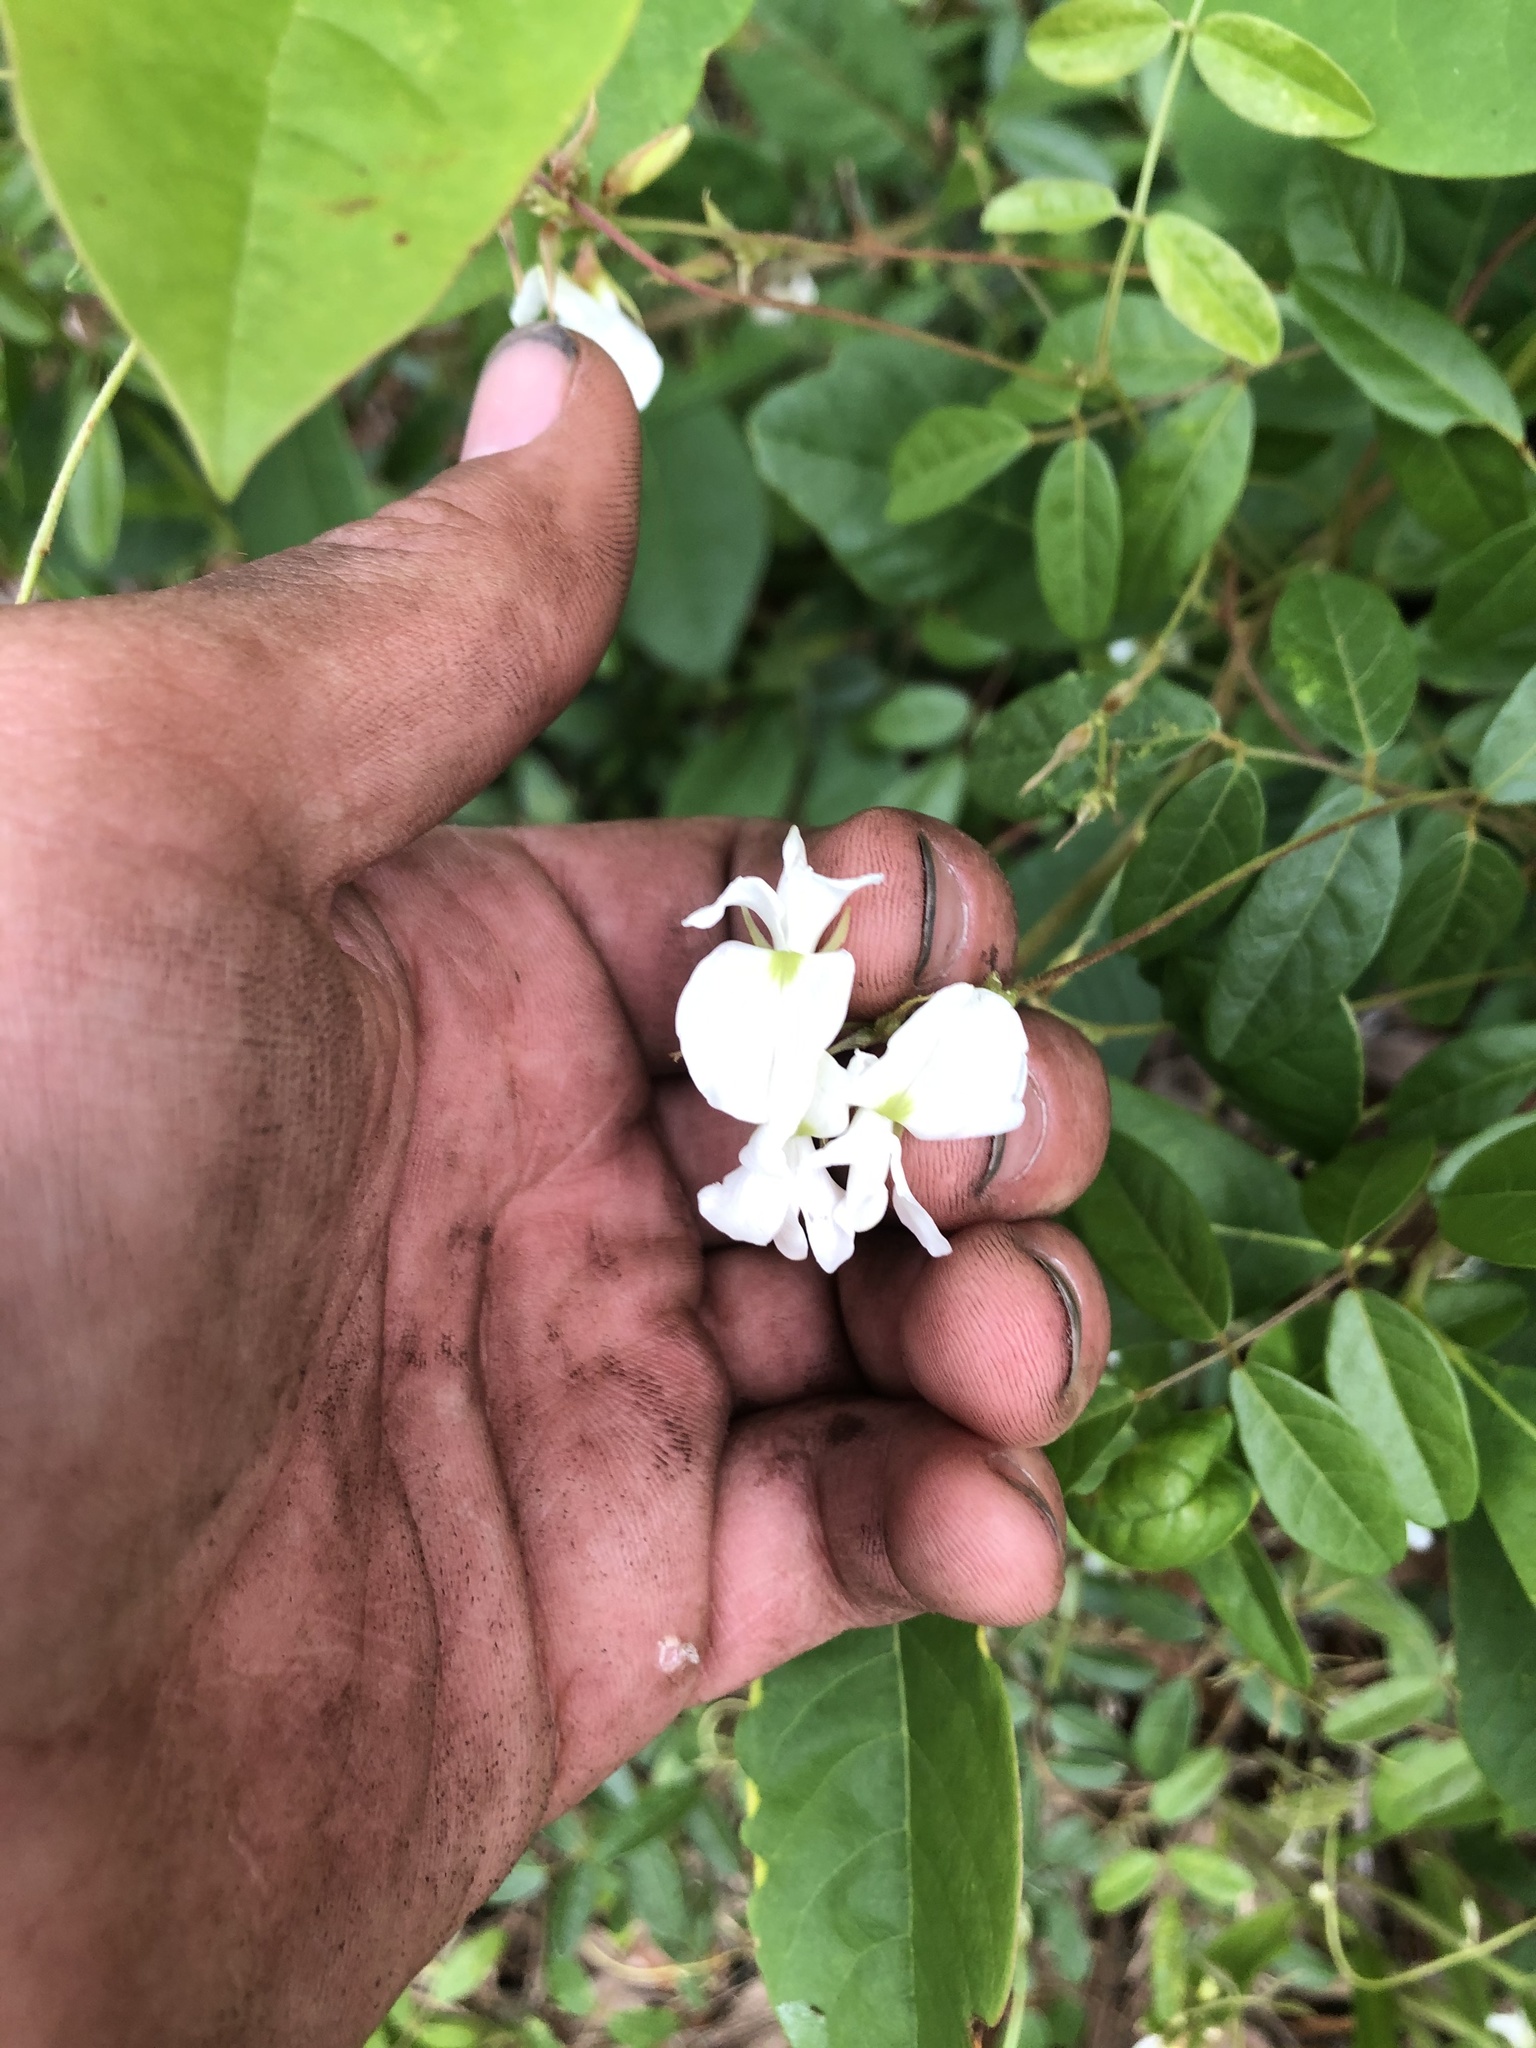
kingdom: Plantae
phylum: Tracheophyta
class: Magnoliopsida
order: Fabales
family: Fabaceae
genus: Galactia
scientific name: Galactia elliottii
